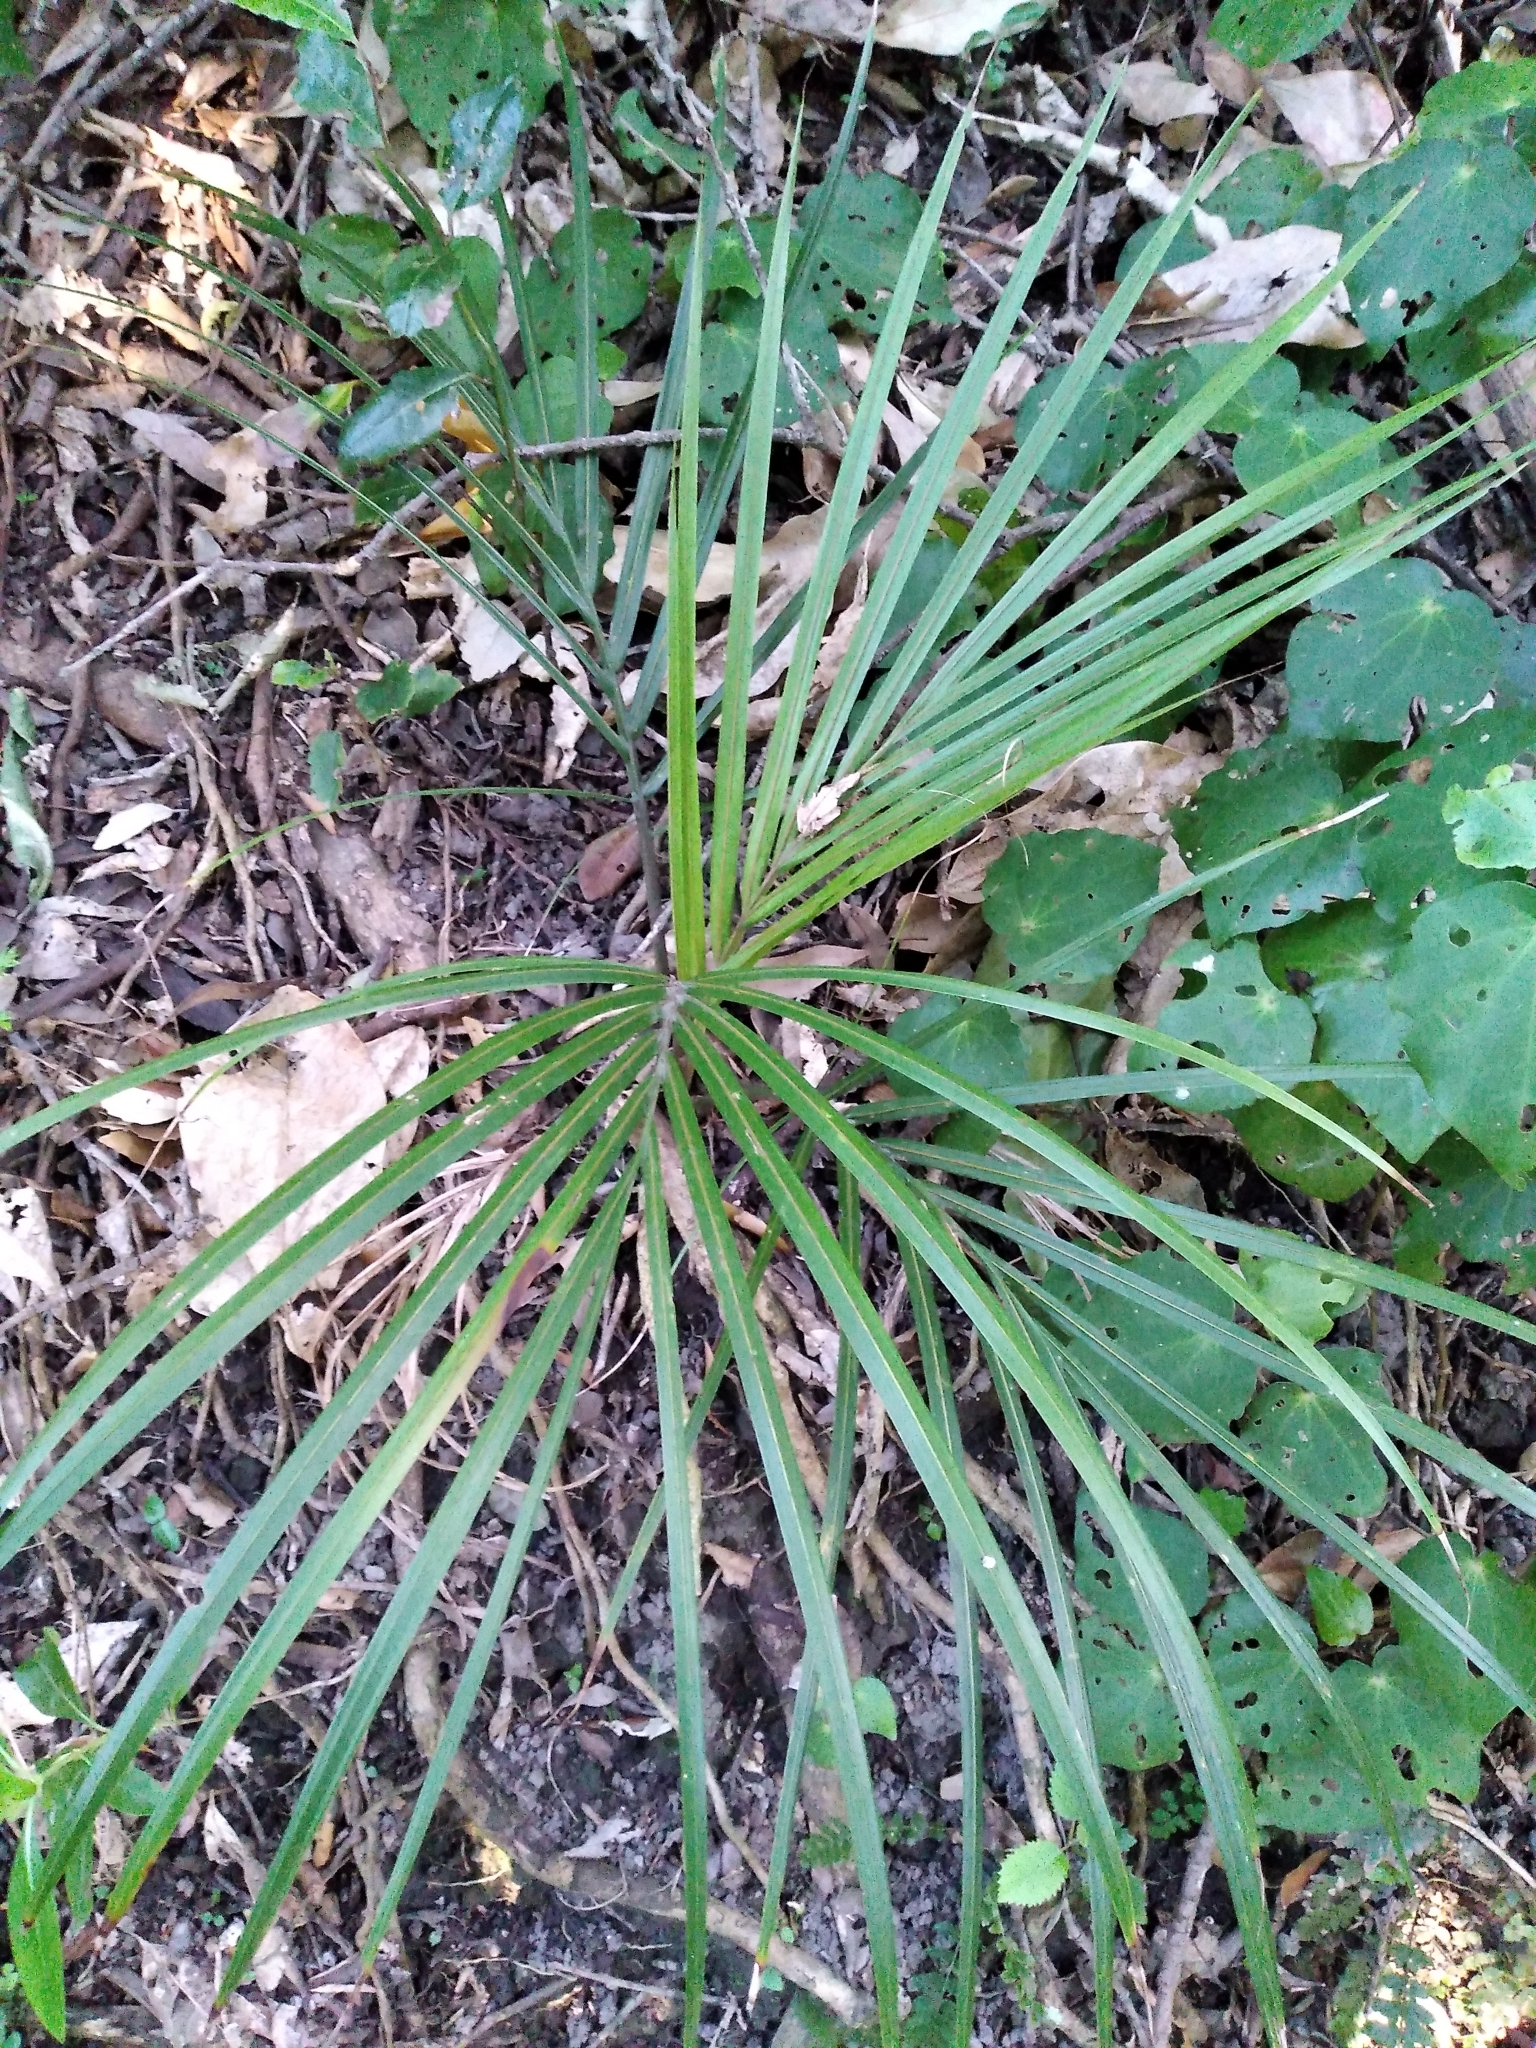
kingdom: Plantae
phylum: Tracheophyta
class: Liliopsida
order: Arecales
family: Arecaceae
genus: Rhopalostylis
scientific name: Rhopalostylis sapida
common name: Feather-duster palm
